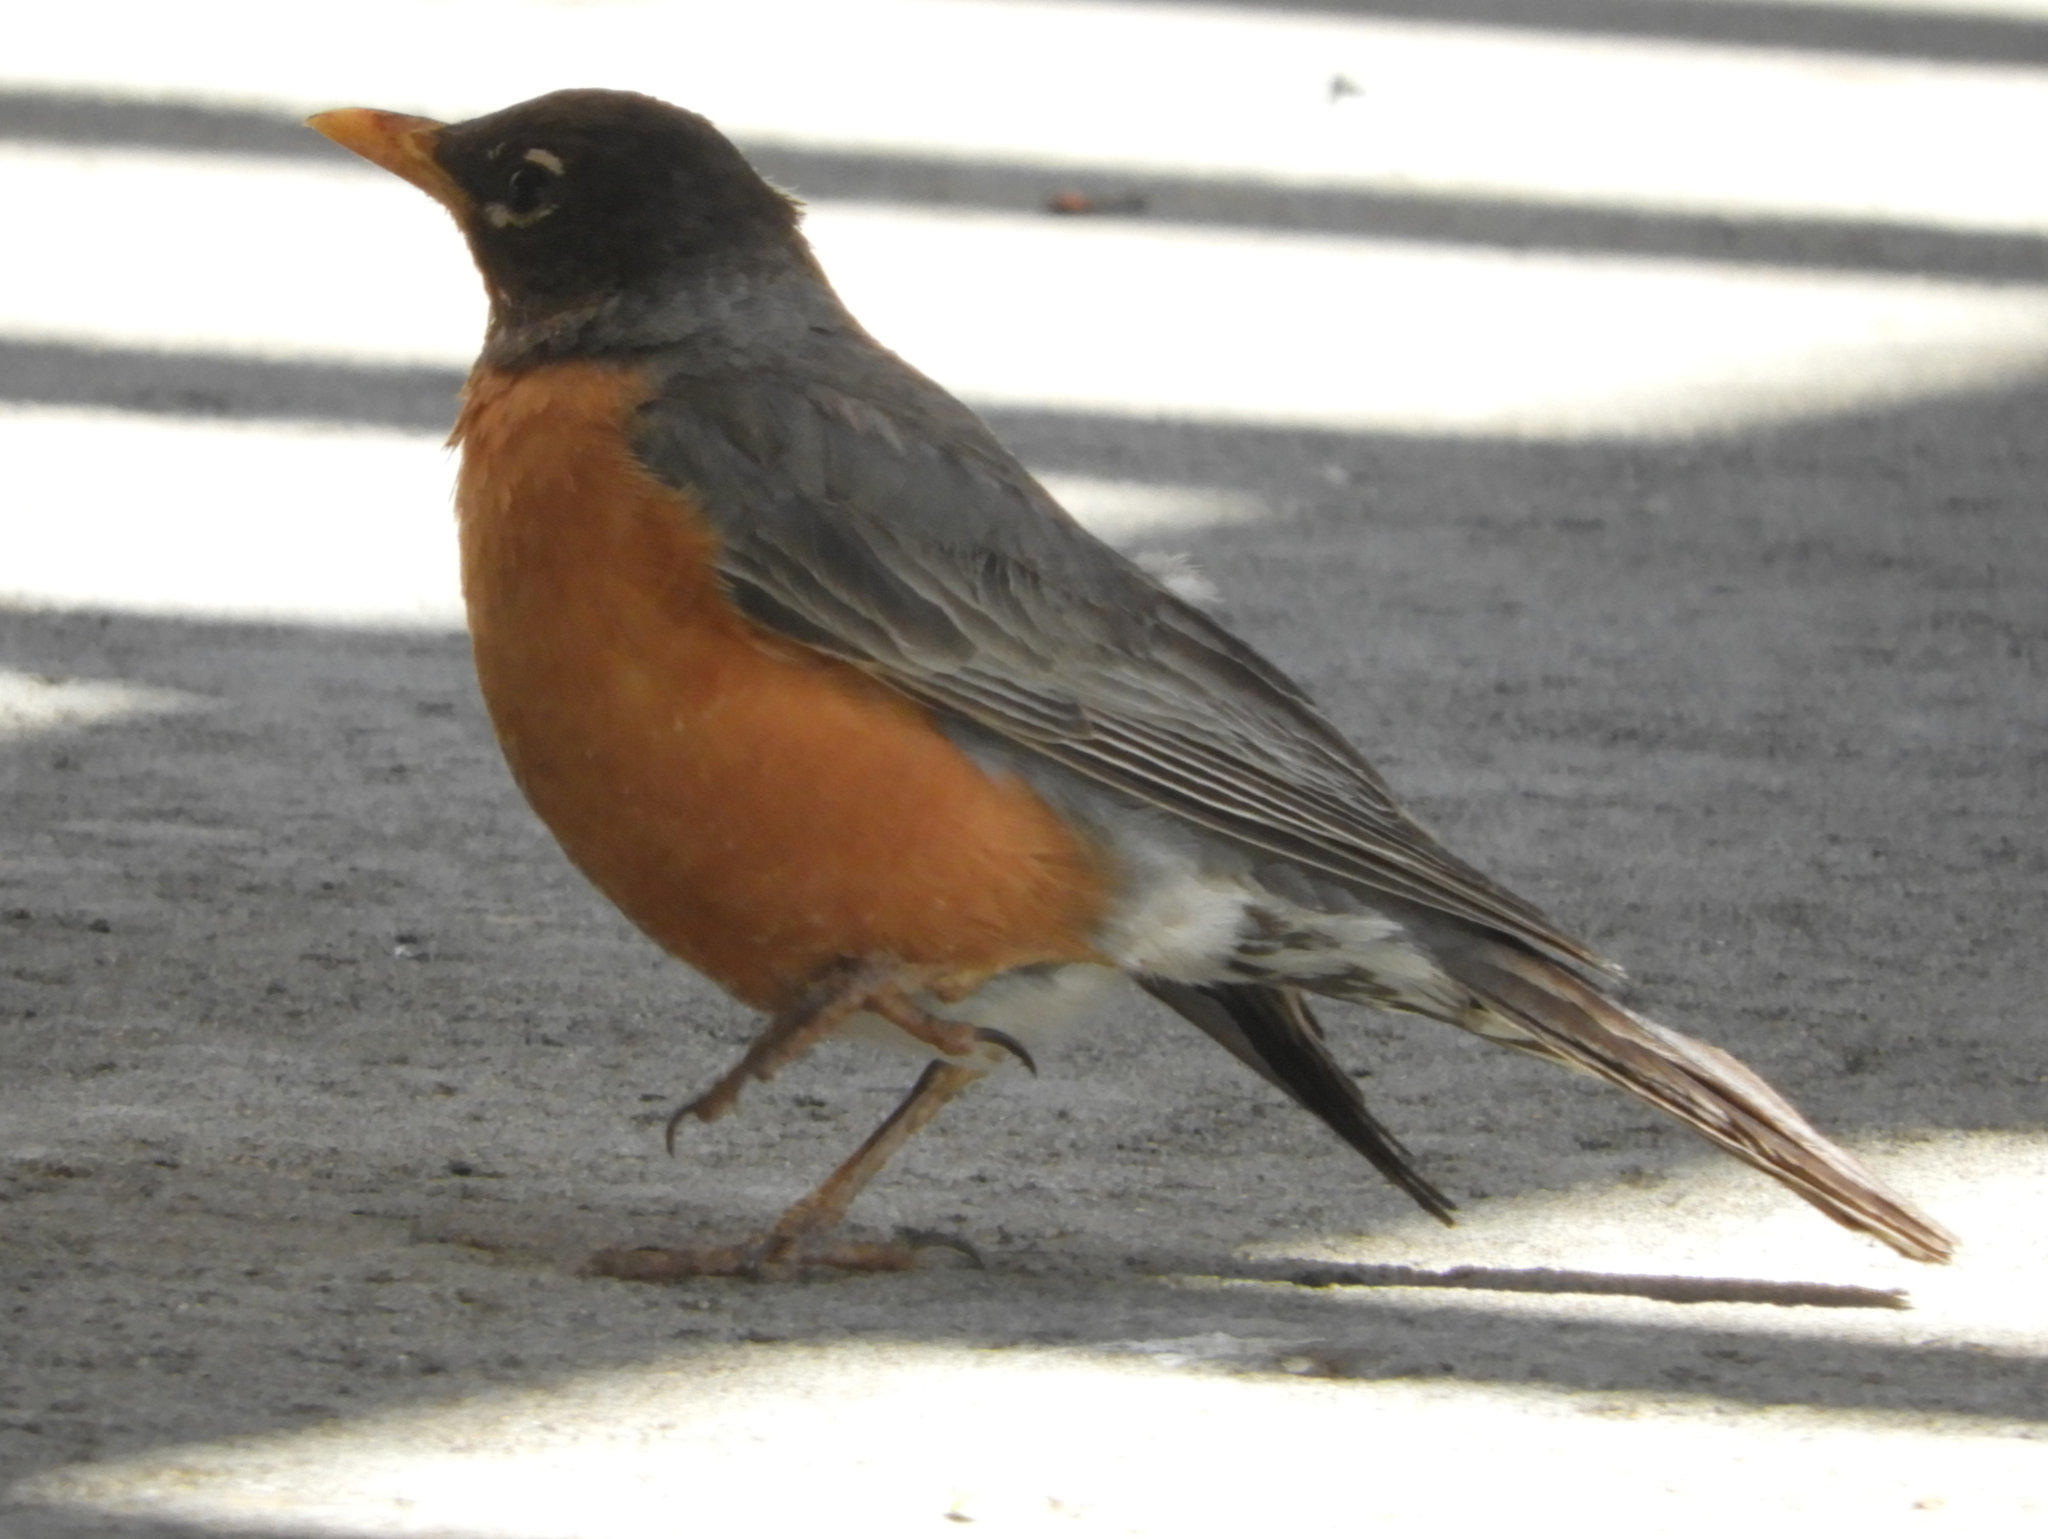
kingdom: Animalia
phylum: Chordata
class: Aves
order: Passeriformes
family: Turdidae
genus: Turdus
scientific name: Turdus migratorius
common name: American robin
